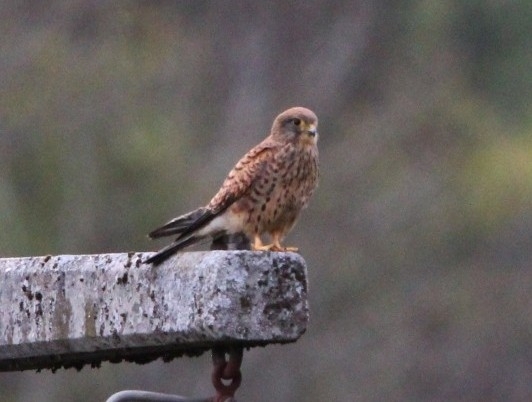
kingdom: Animalia
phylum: Chordata
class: Aves
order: Falconiformes
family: Falconidae
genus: Falco
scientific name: Falco tinnunculus
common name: Common kestrel
